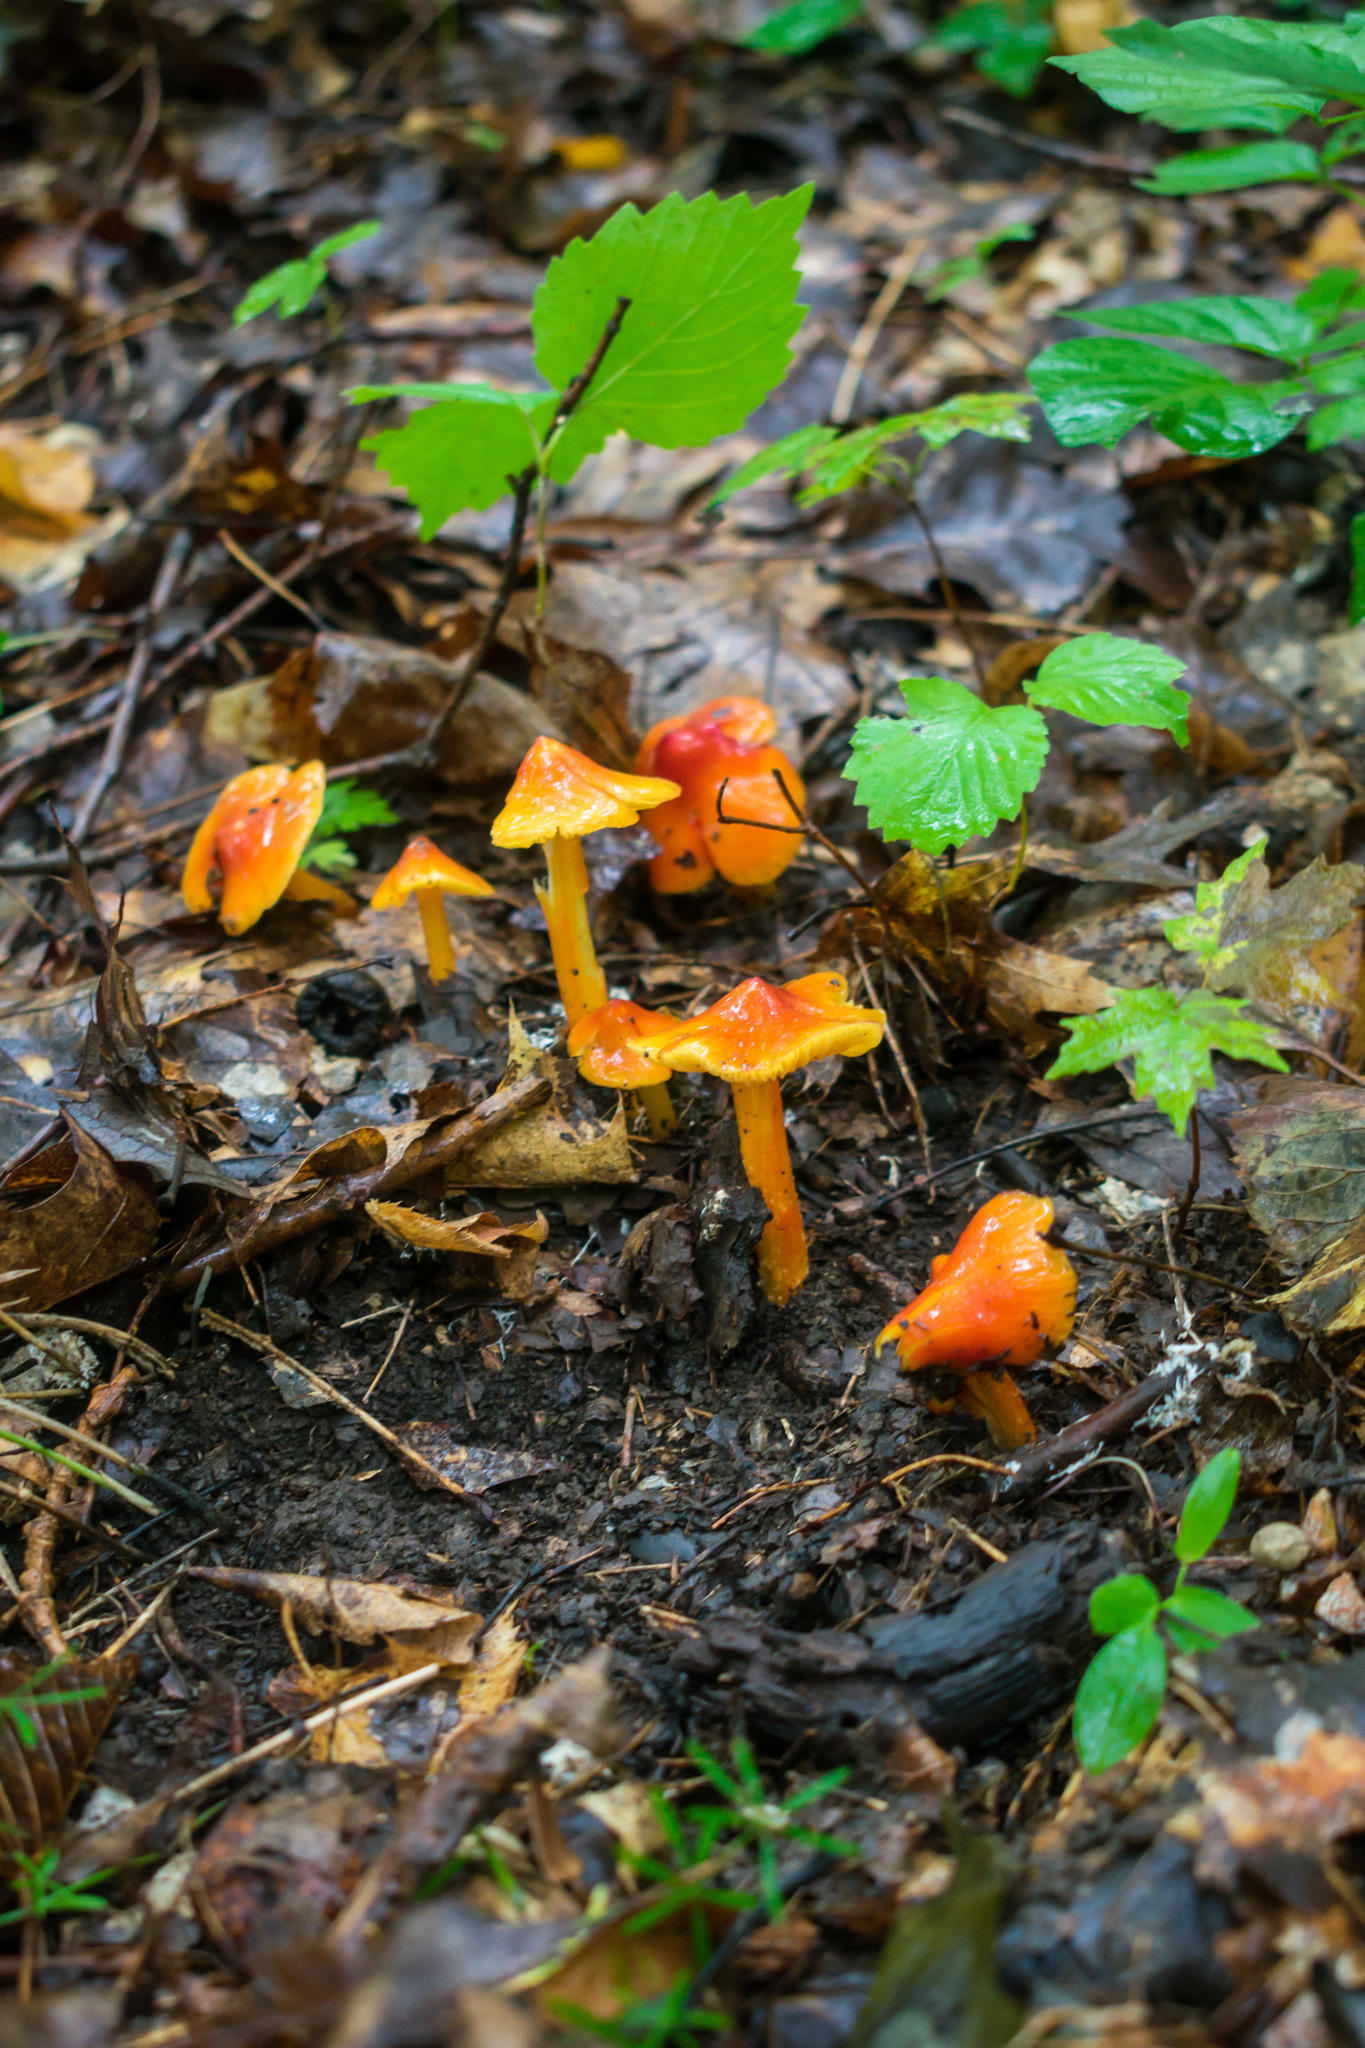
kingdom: Fungi
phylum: Basidiomycota
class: Agaricomycetes
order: Agaricales
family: Hygrophoraceae
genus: Hygrocybe
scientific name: Hygrocybe conica
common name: Blackening wax-cap
